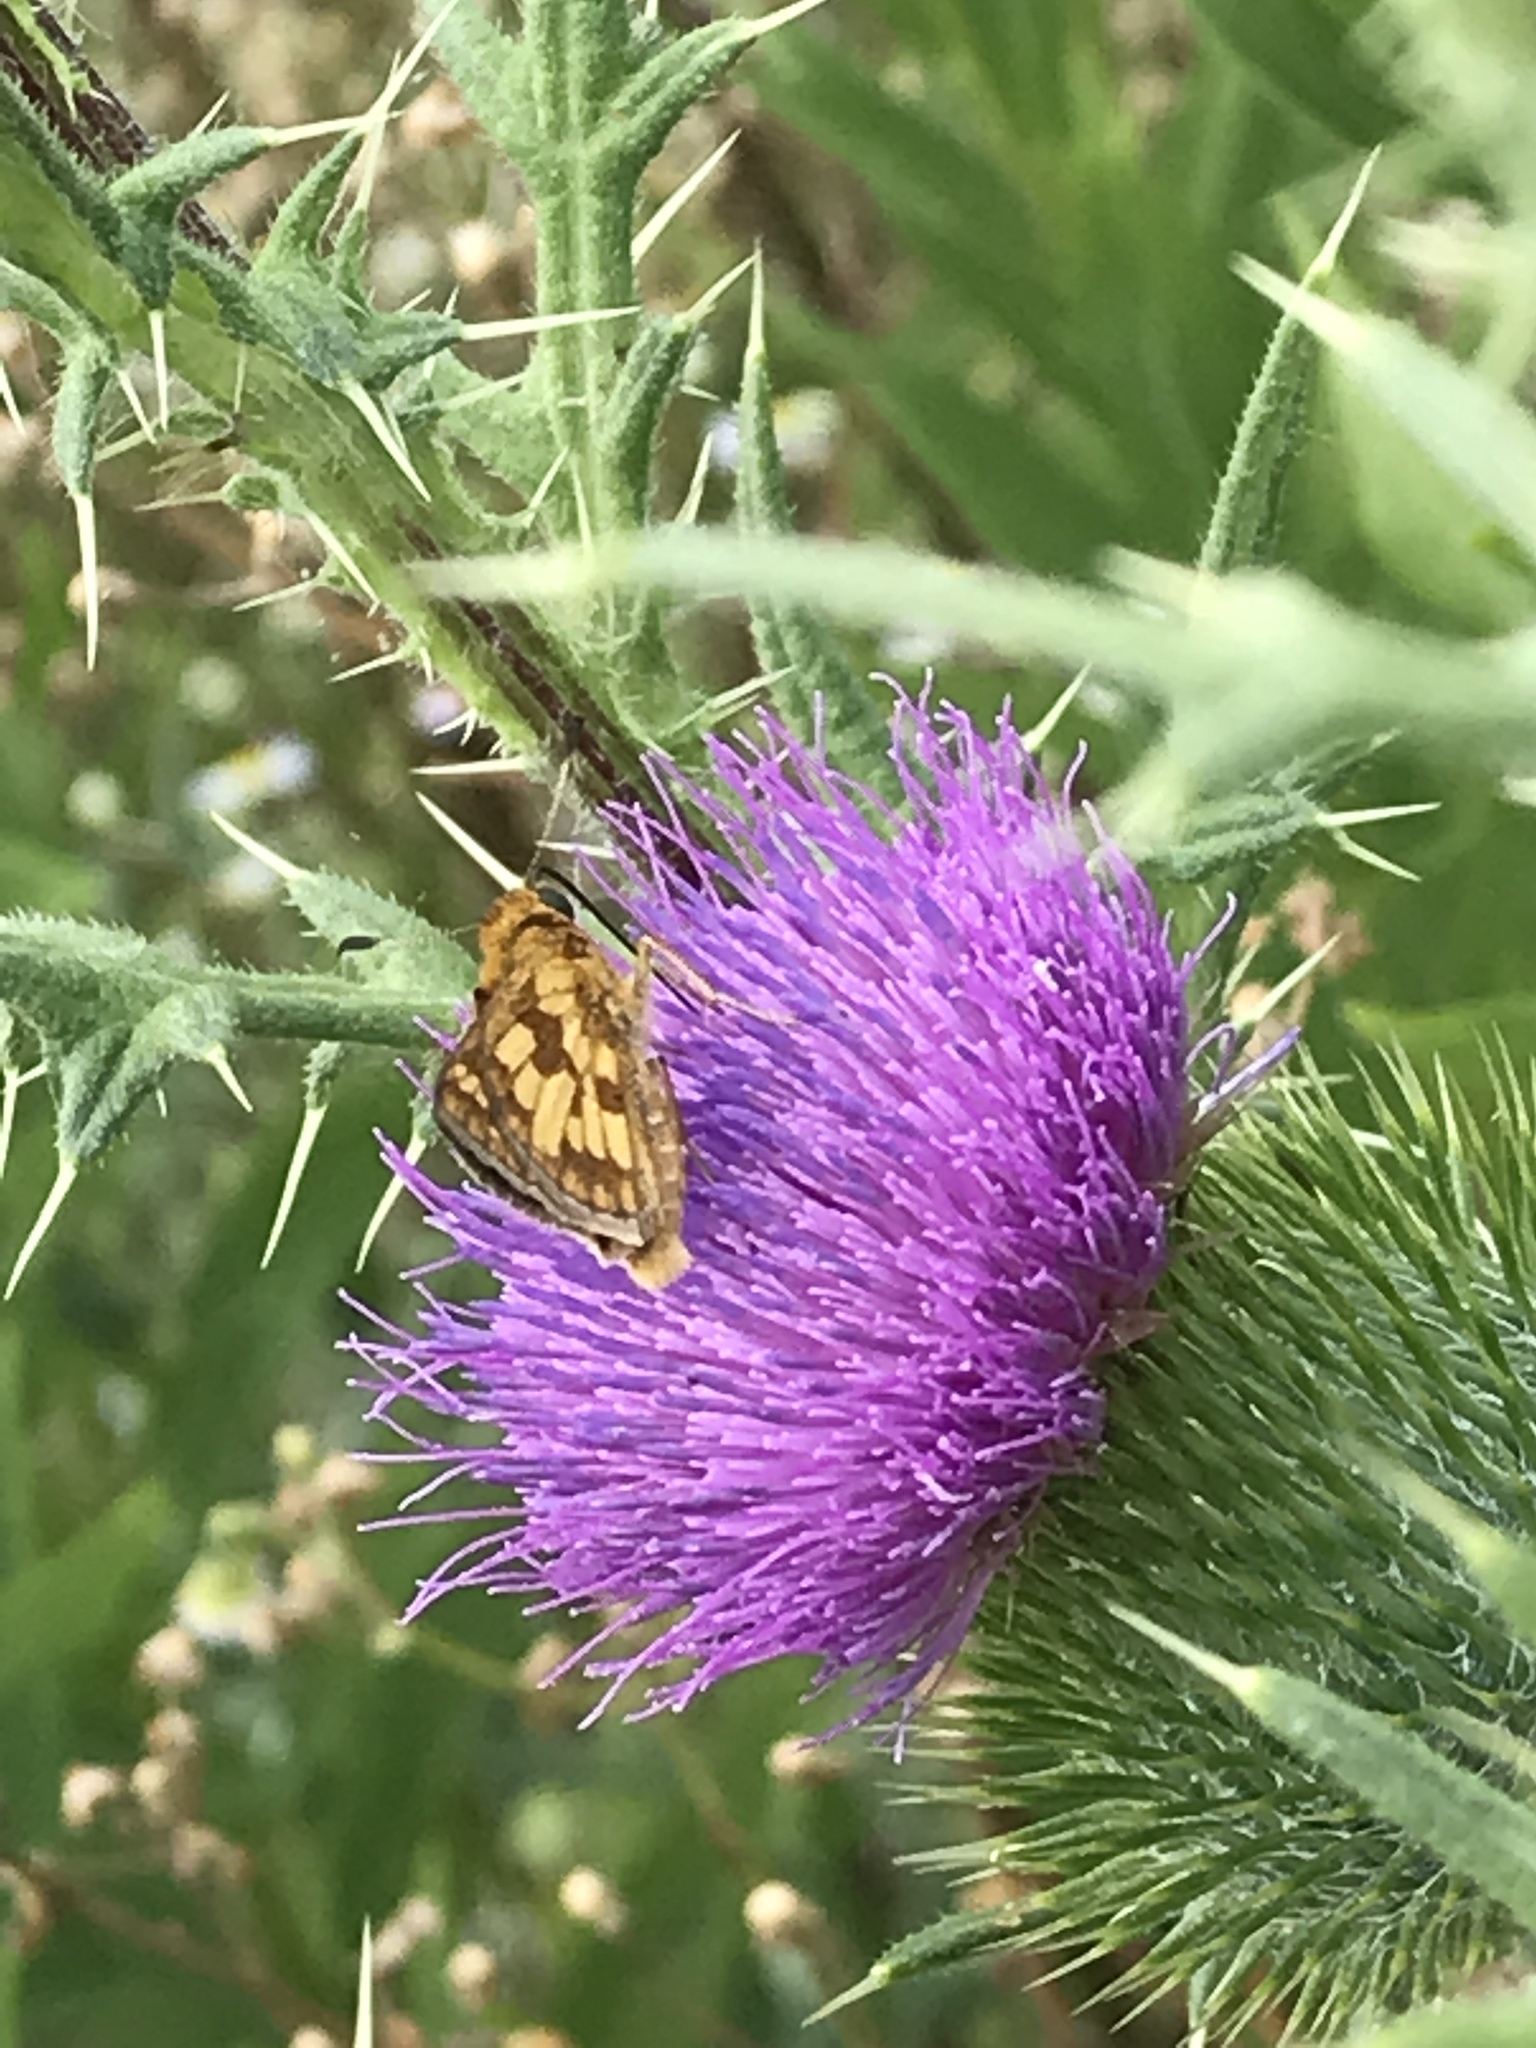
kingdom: Animalia
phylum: Arthropoda
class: Insecta
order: Lepidoptera
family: Hesperiidae
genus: Polites
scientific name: Polites coras
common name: Peck's skipper
